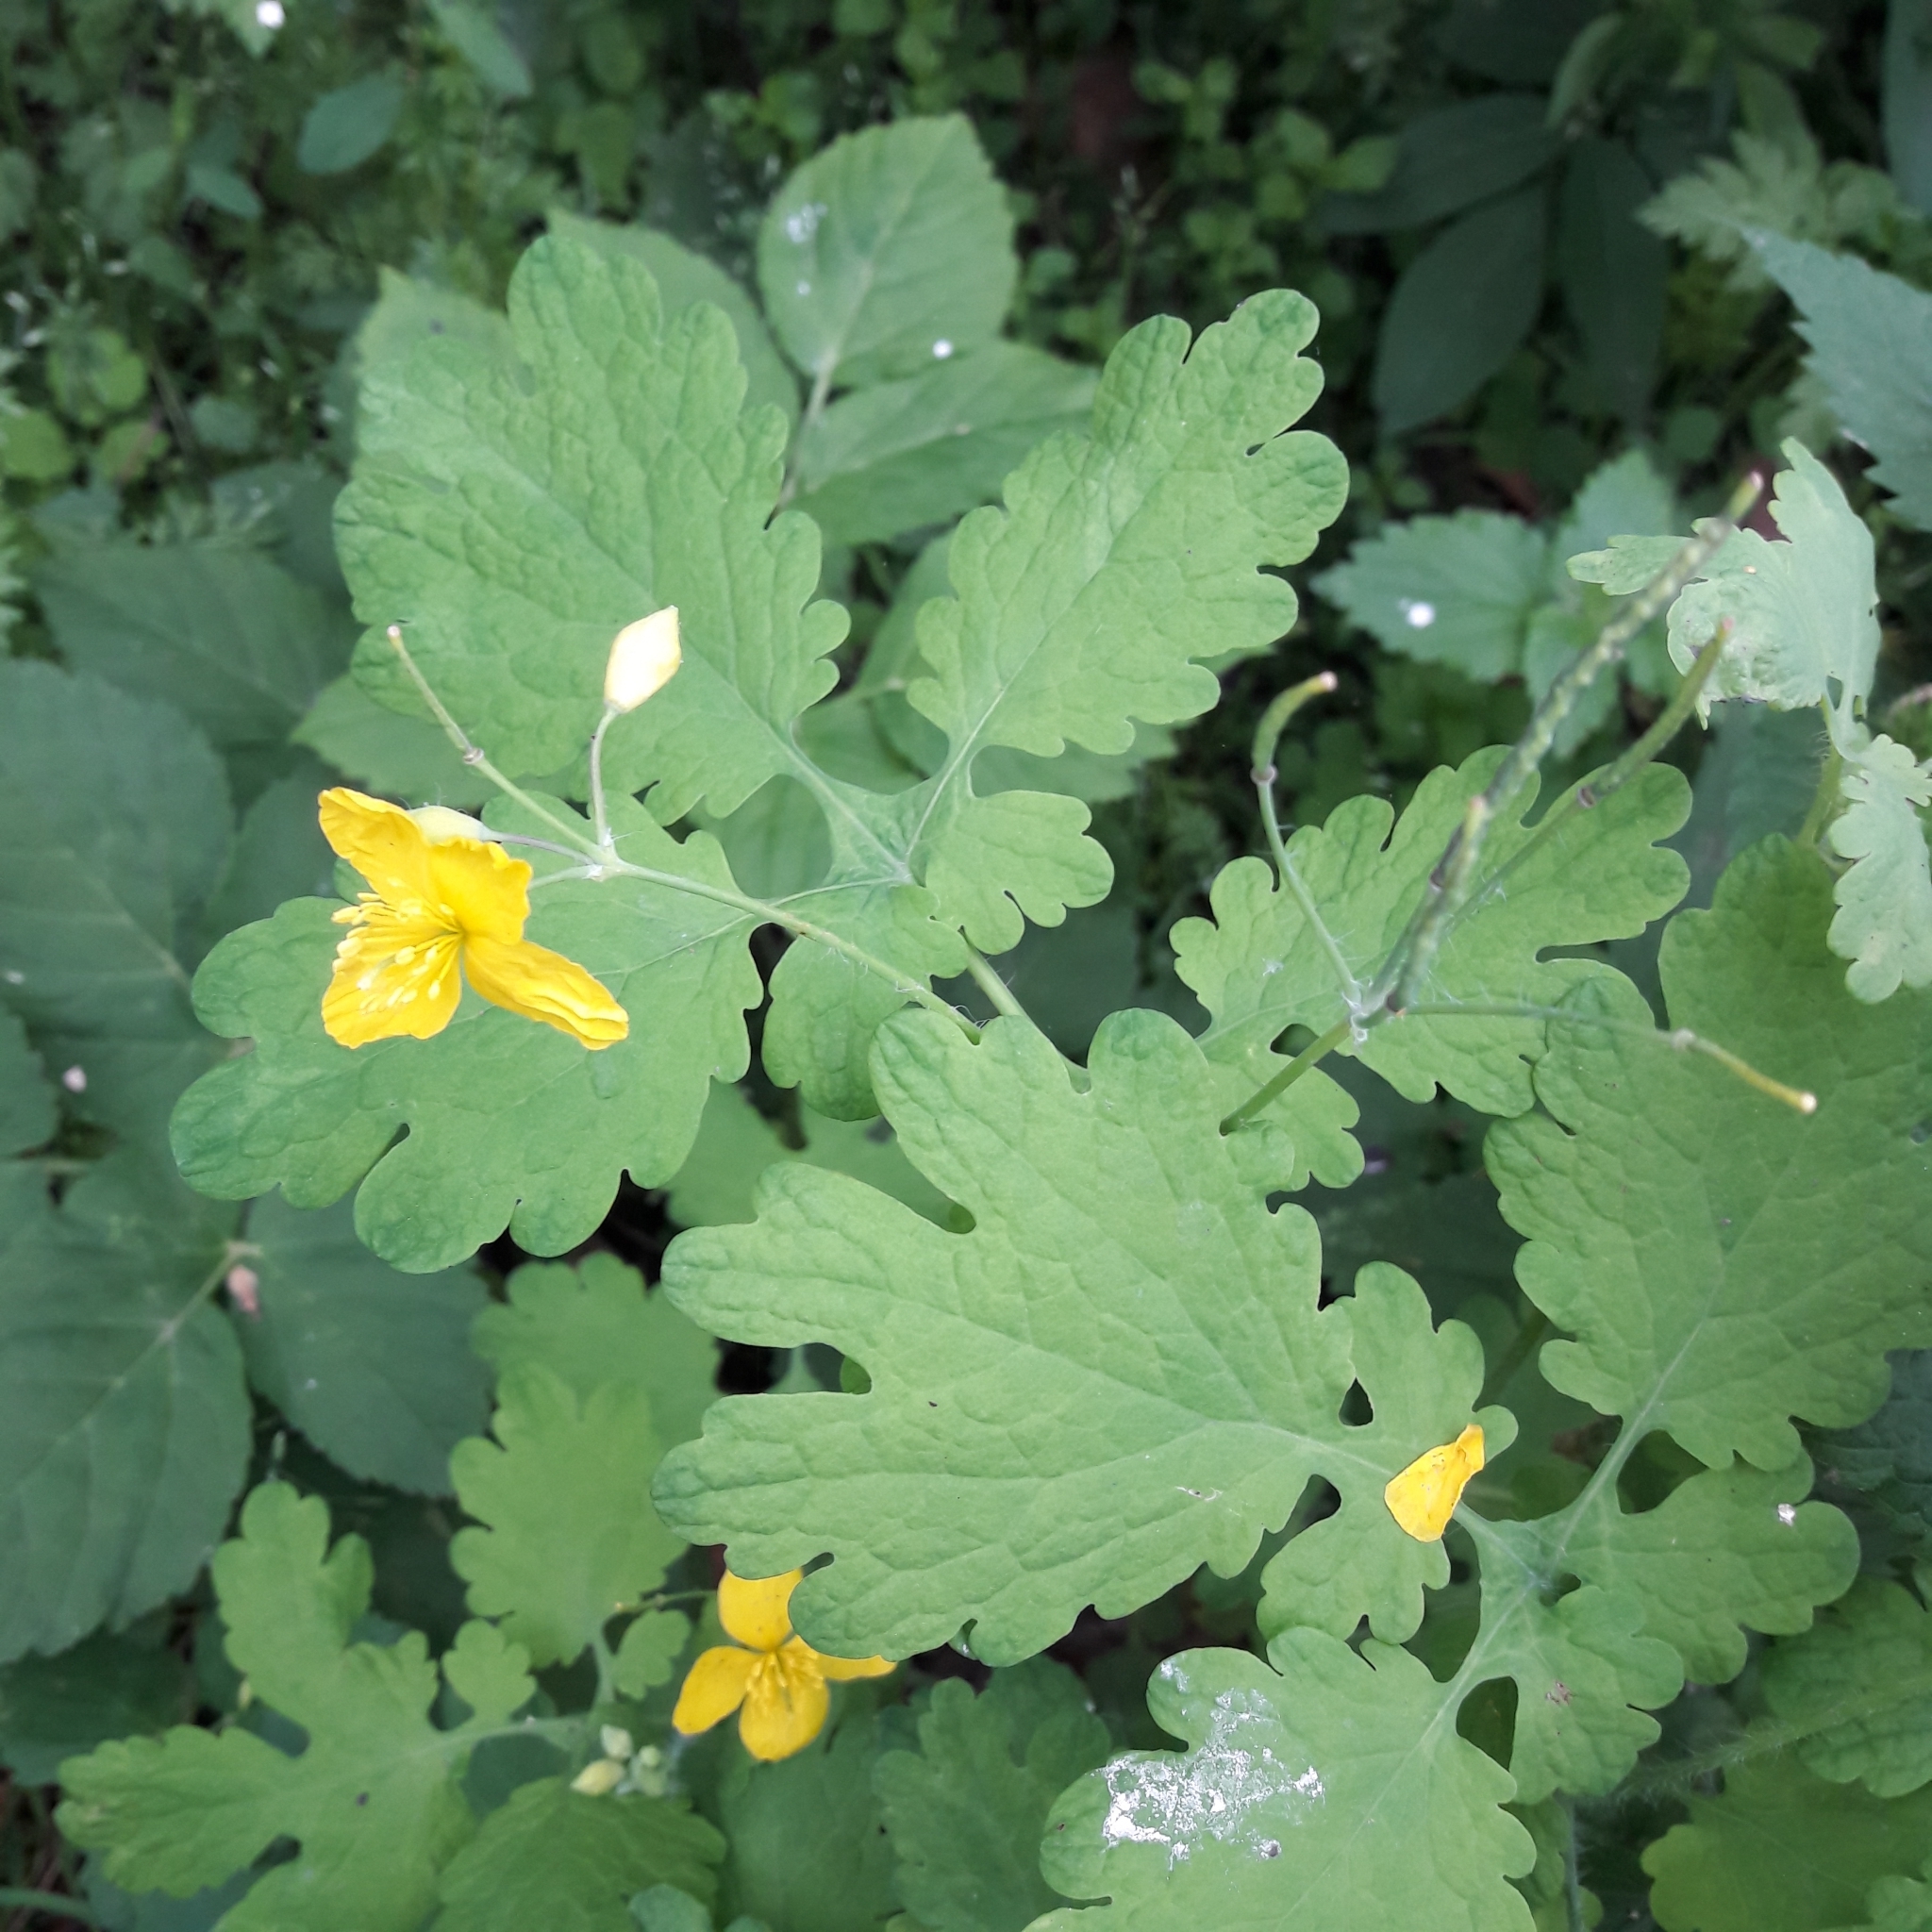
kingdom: Plantae
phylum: Tracheophyta
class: Magnoliopsida
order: Ranunculales
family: Papaveraceae
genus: Chelidonium
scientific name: Chelidonium majus
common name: Greater celandine
